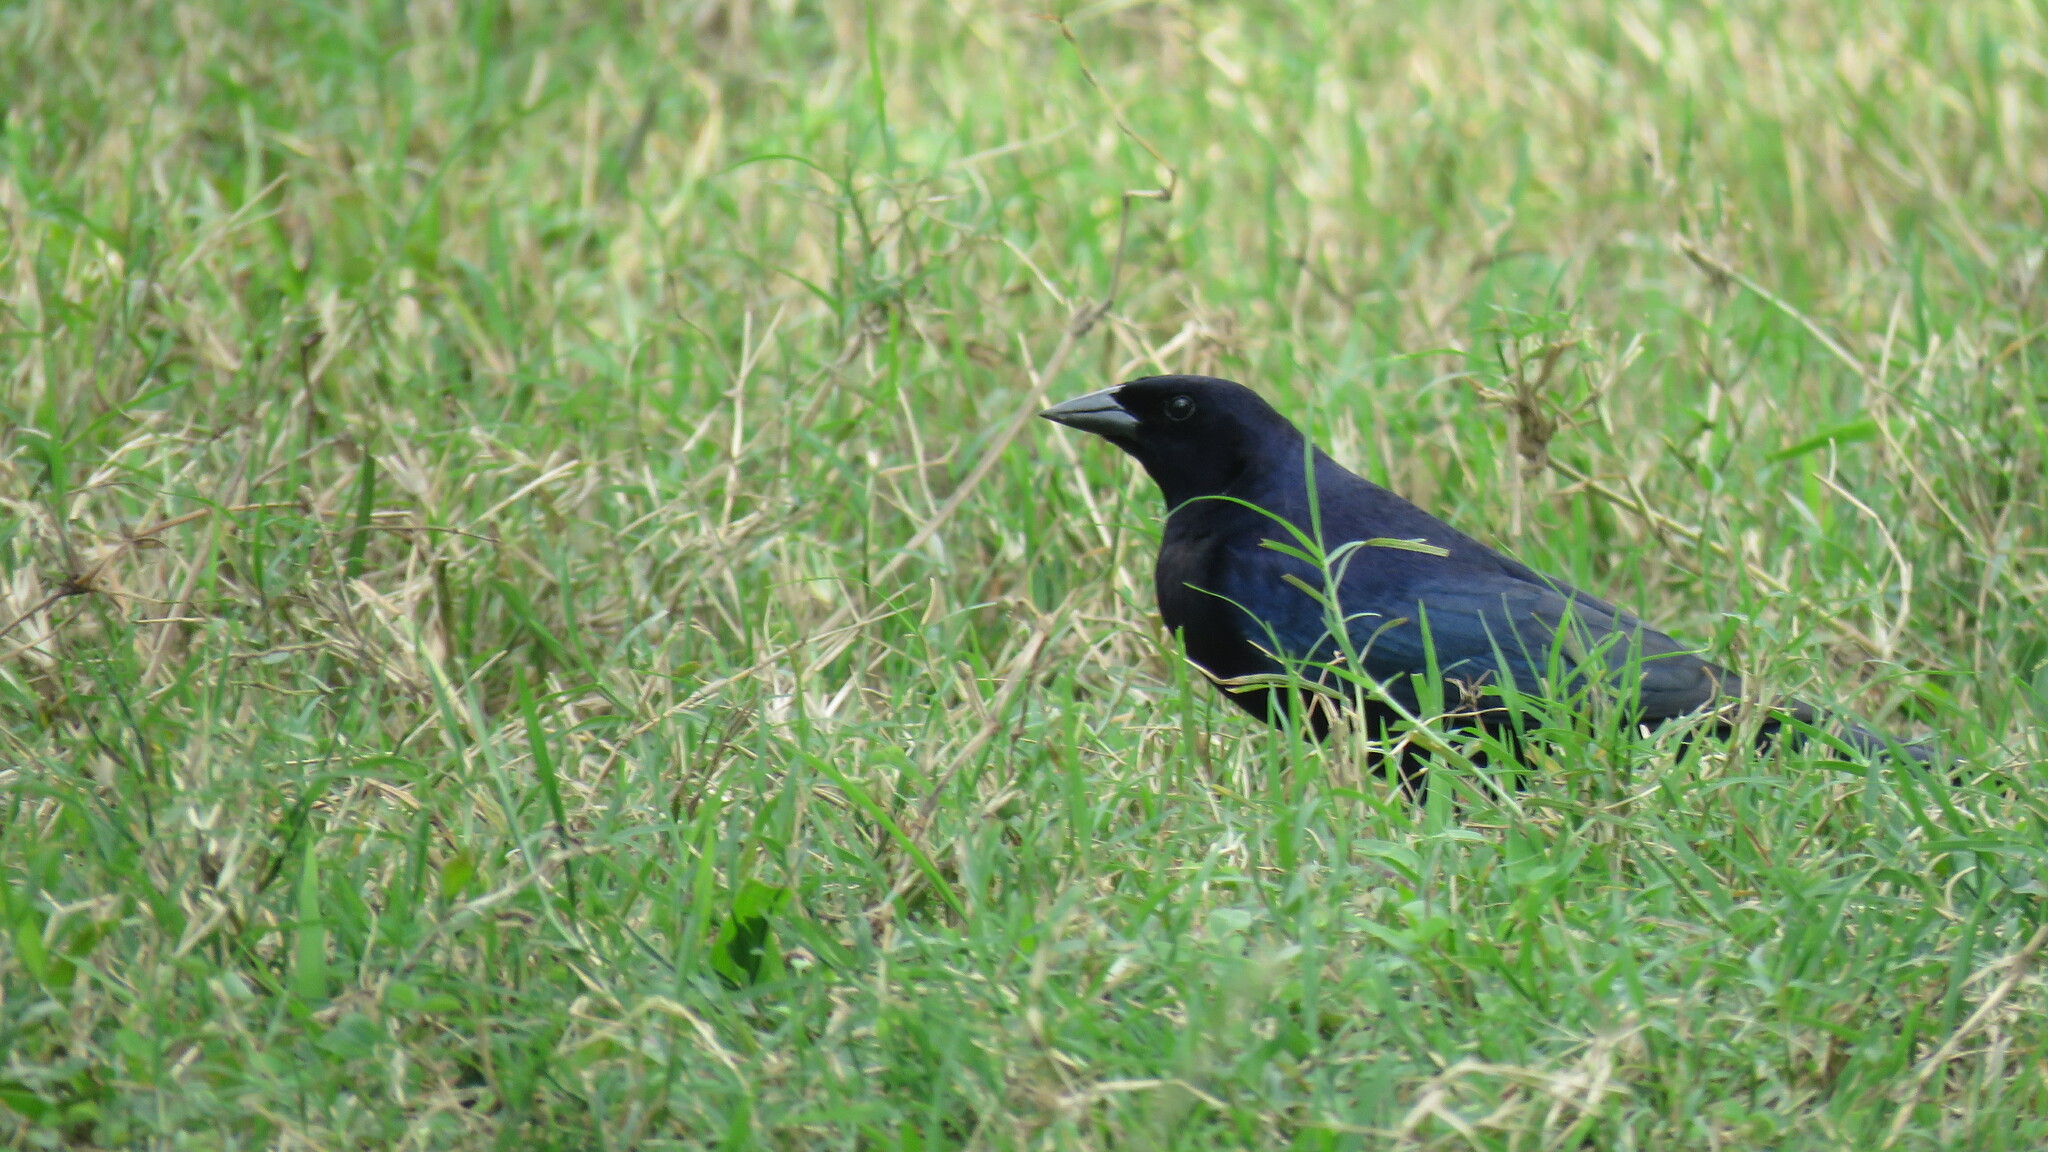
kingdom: Animalia
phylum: Chordata
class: Aves
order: Passeriformes
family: Icteridae
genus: Molothrus
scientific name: Molothrus bonariensis
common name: Shiny cowbird
